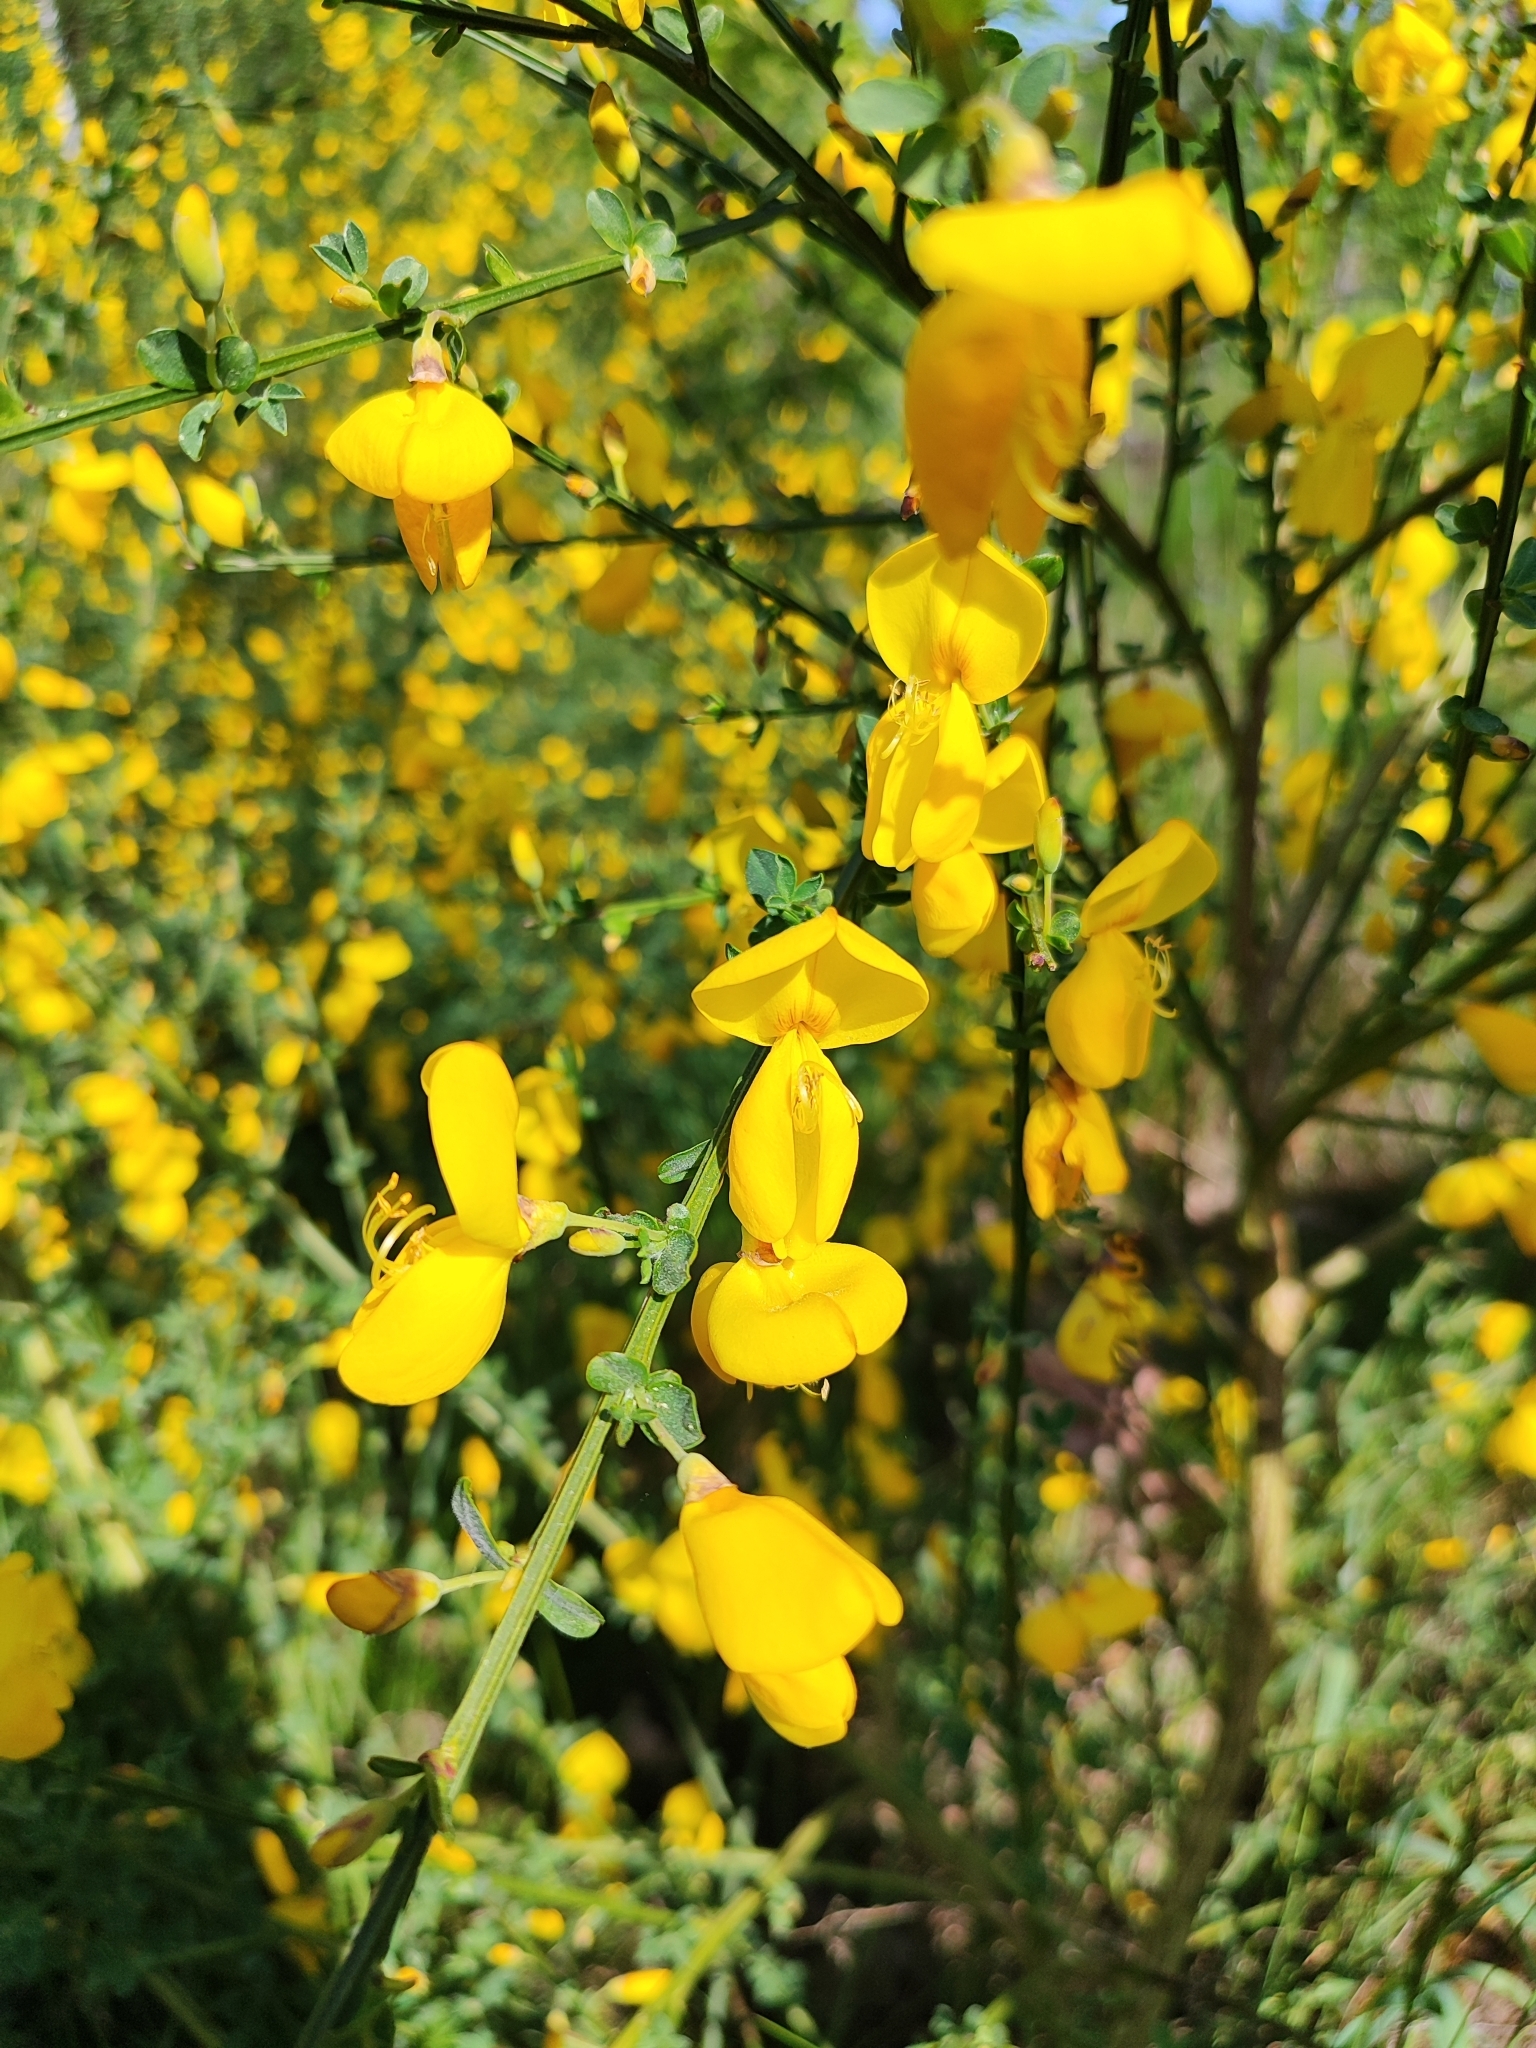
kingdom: Plantae
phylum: Tracheophyta
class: Magnoliopsida
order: Fabales
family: Fabaceae
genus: Cytisus
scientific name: Cytisus scoparius
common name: Scotch broom
